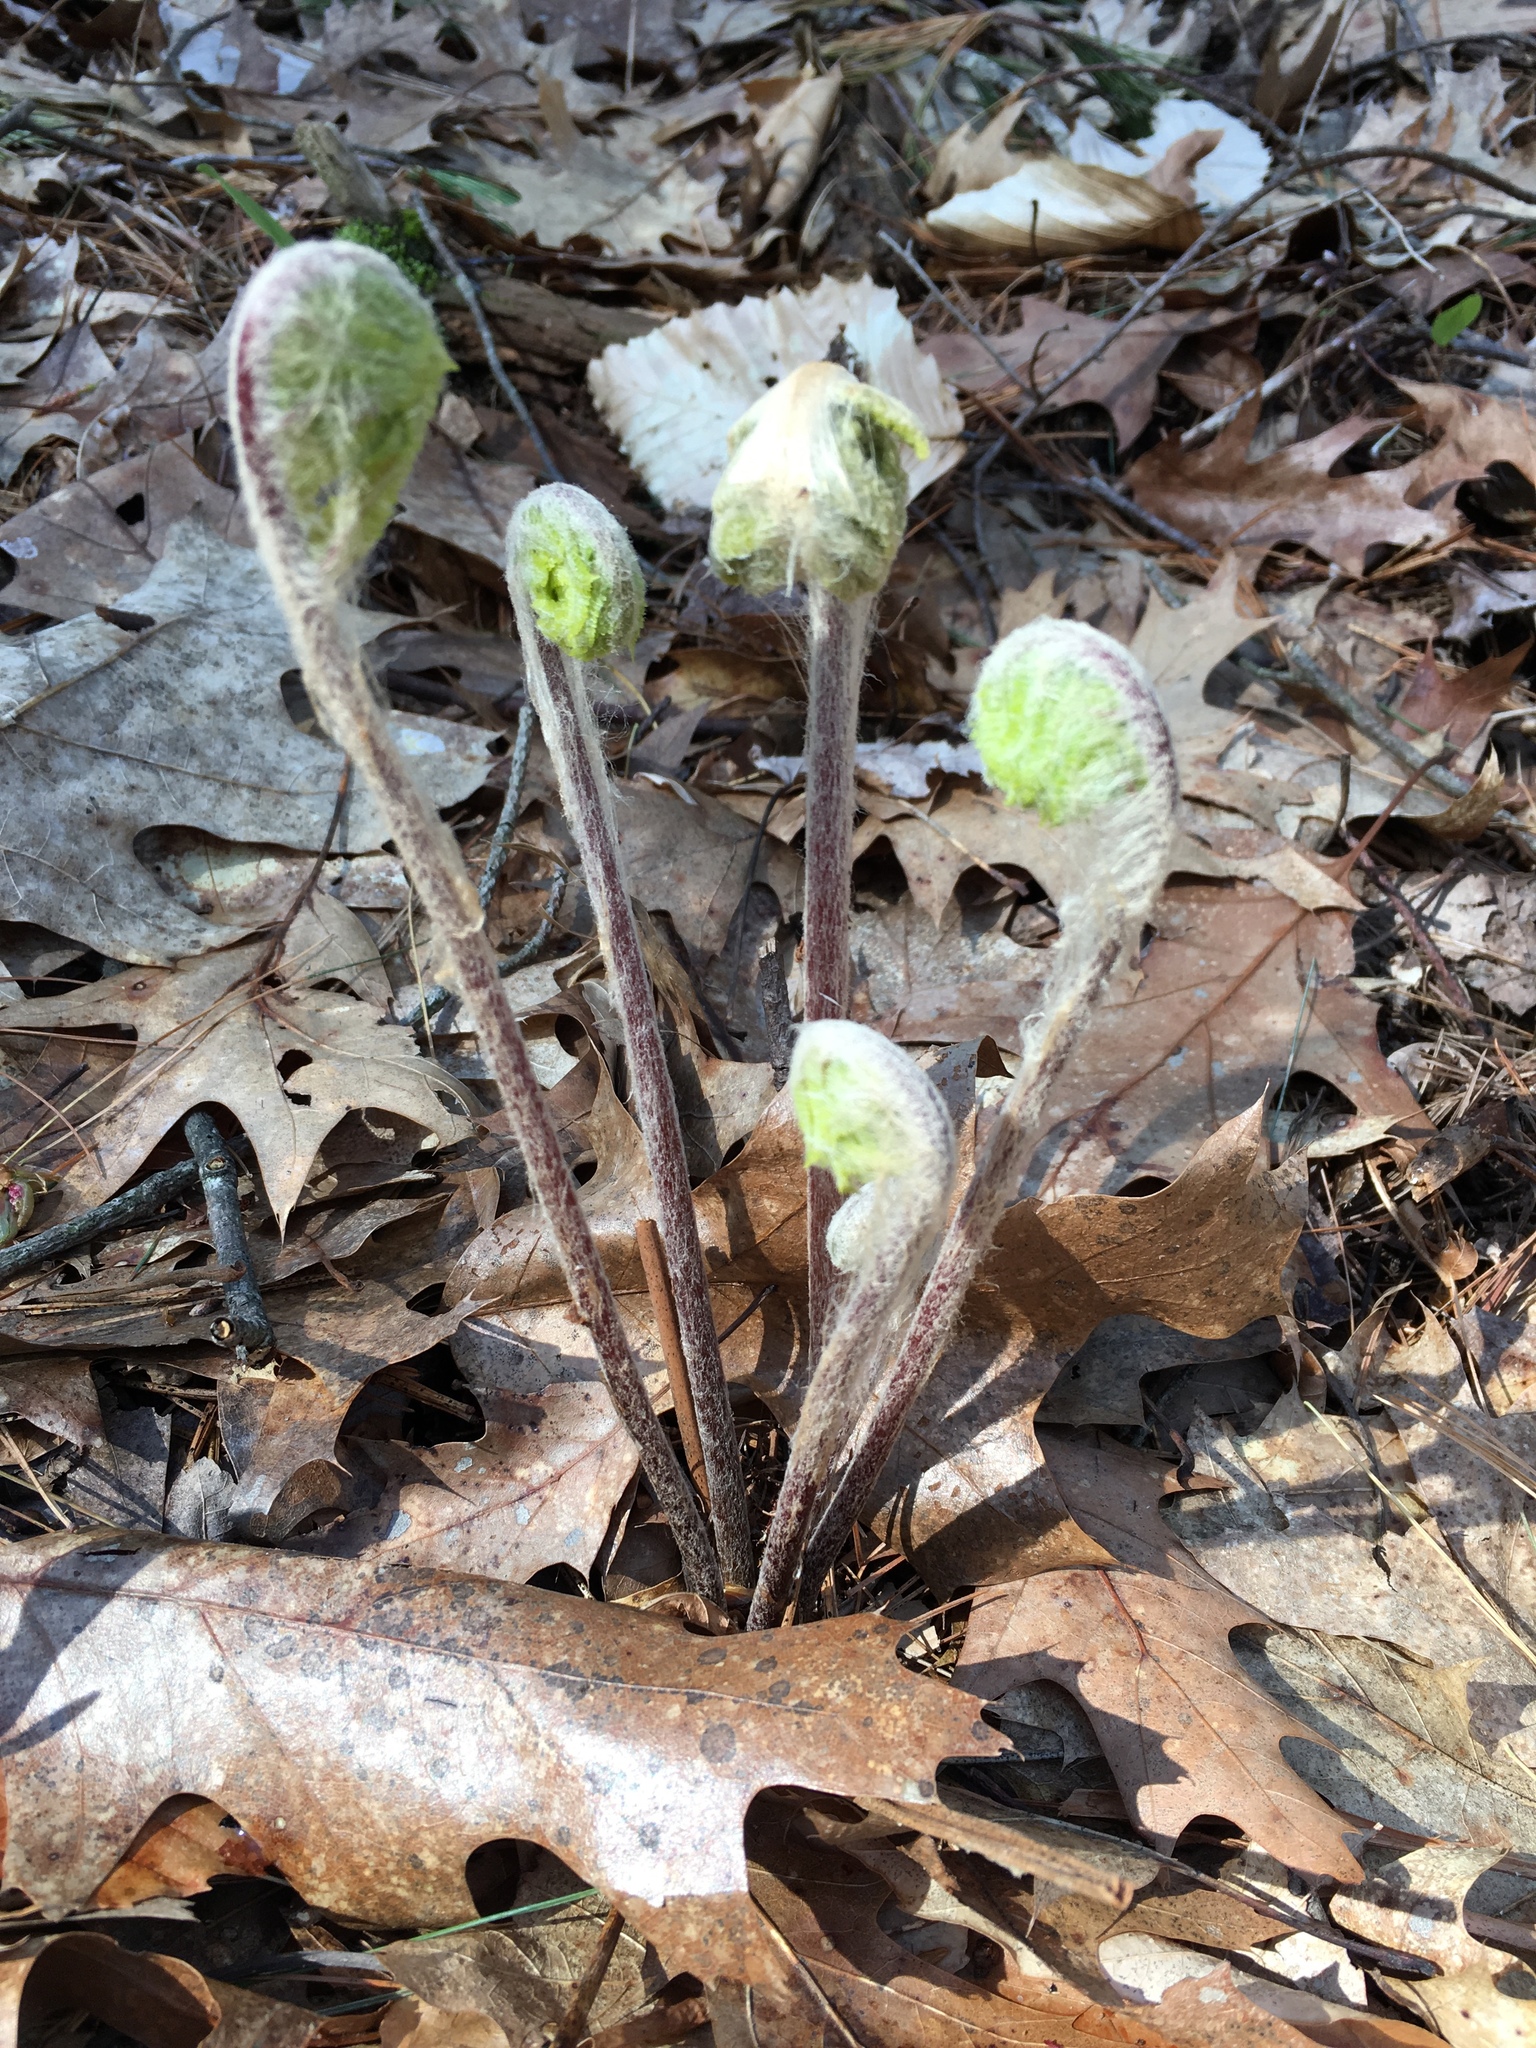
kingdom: Plantae
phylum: Tracheophyta
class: Polypodiopsida
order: Osmundales
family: Osmundaceae
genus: Claytosmunda
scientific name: Claytosmunda claytoniana
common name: Clayton's fern
